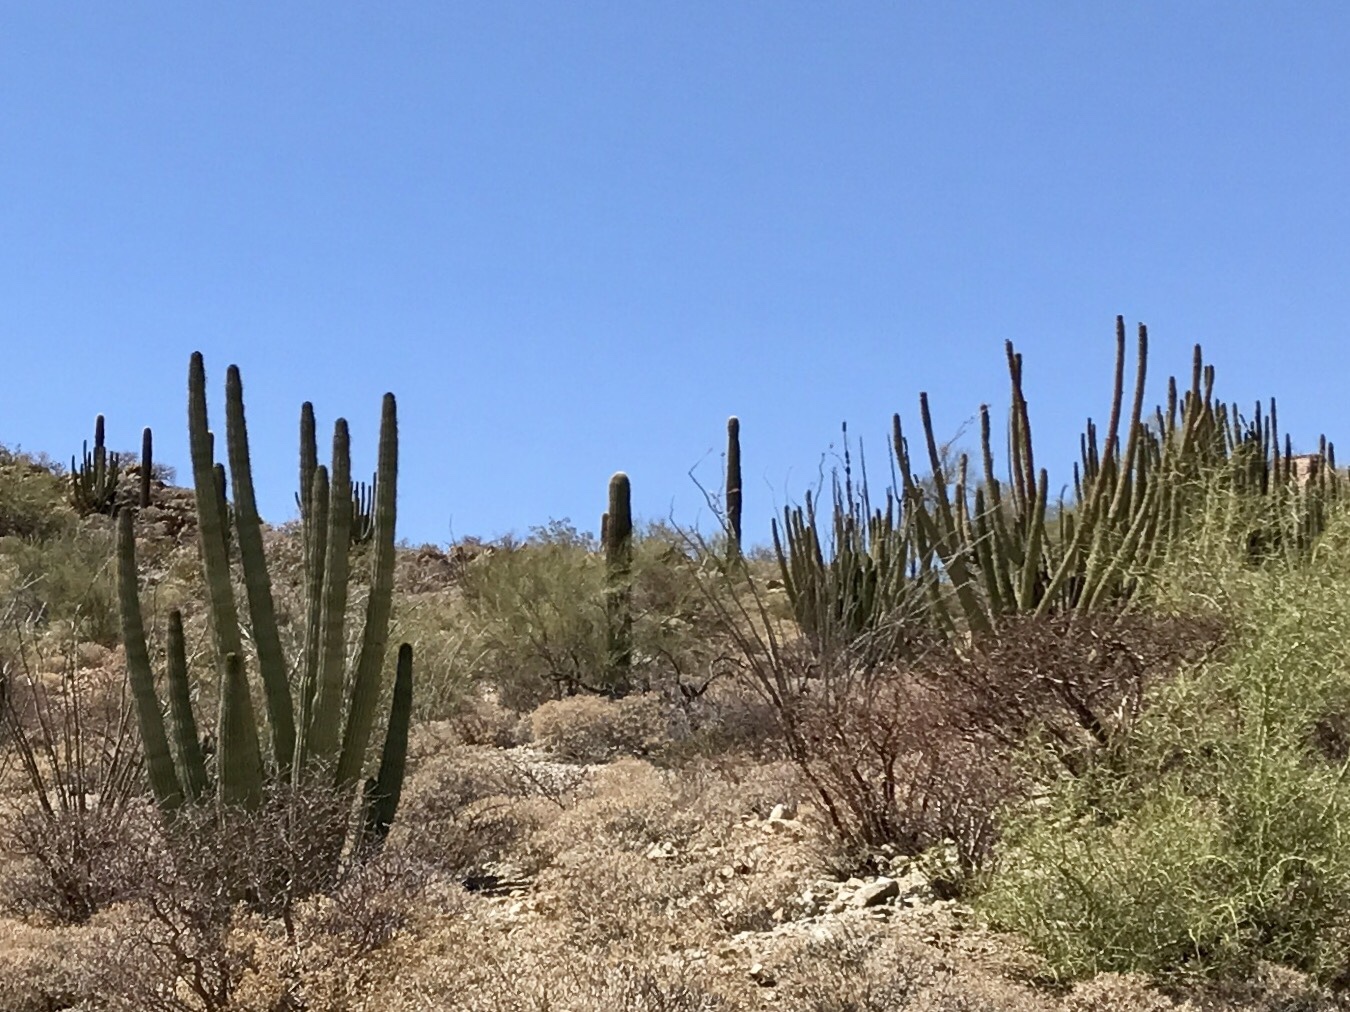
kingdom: Plantae
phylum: Tracheophyta
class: Magnoliopsida
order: Caryophyllales
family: Cactaceae
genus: Stenocereus
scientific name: Stenocereus thurberi
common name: Organ pipe cactus
